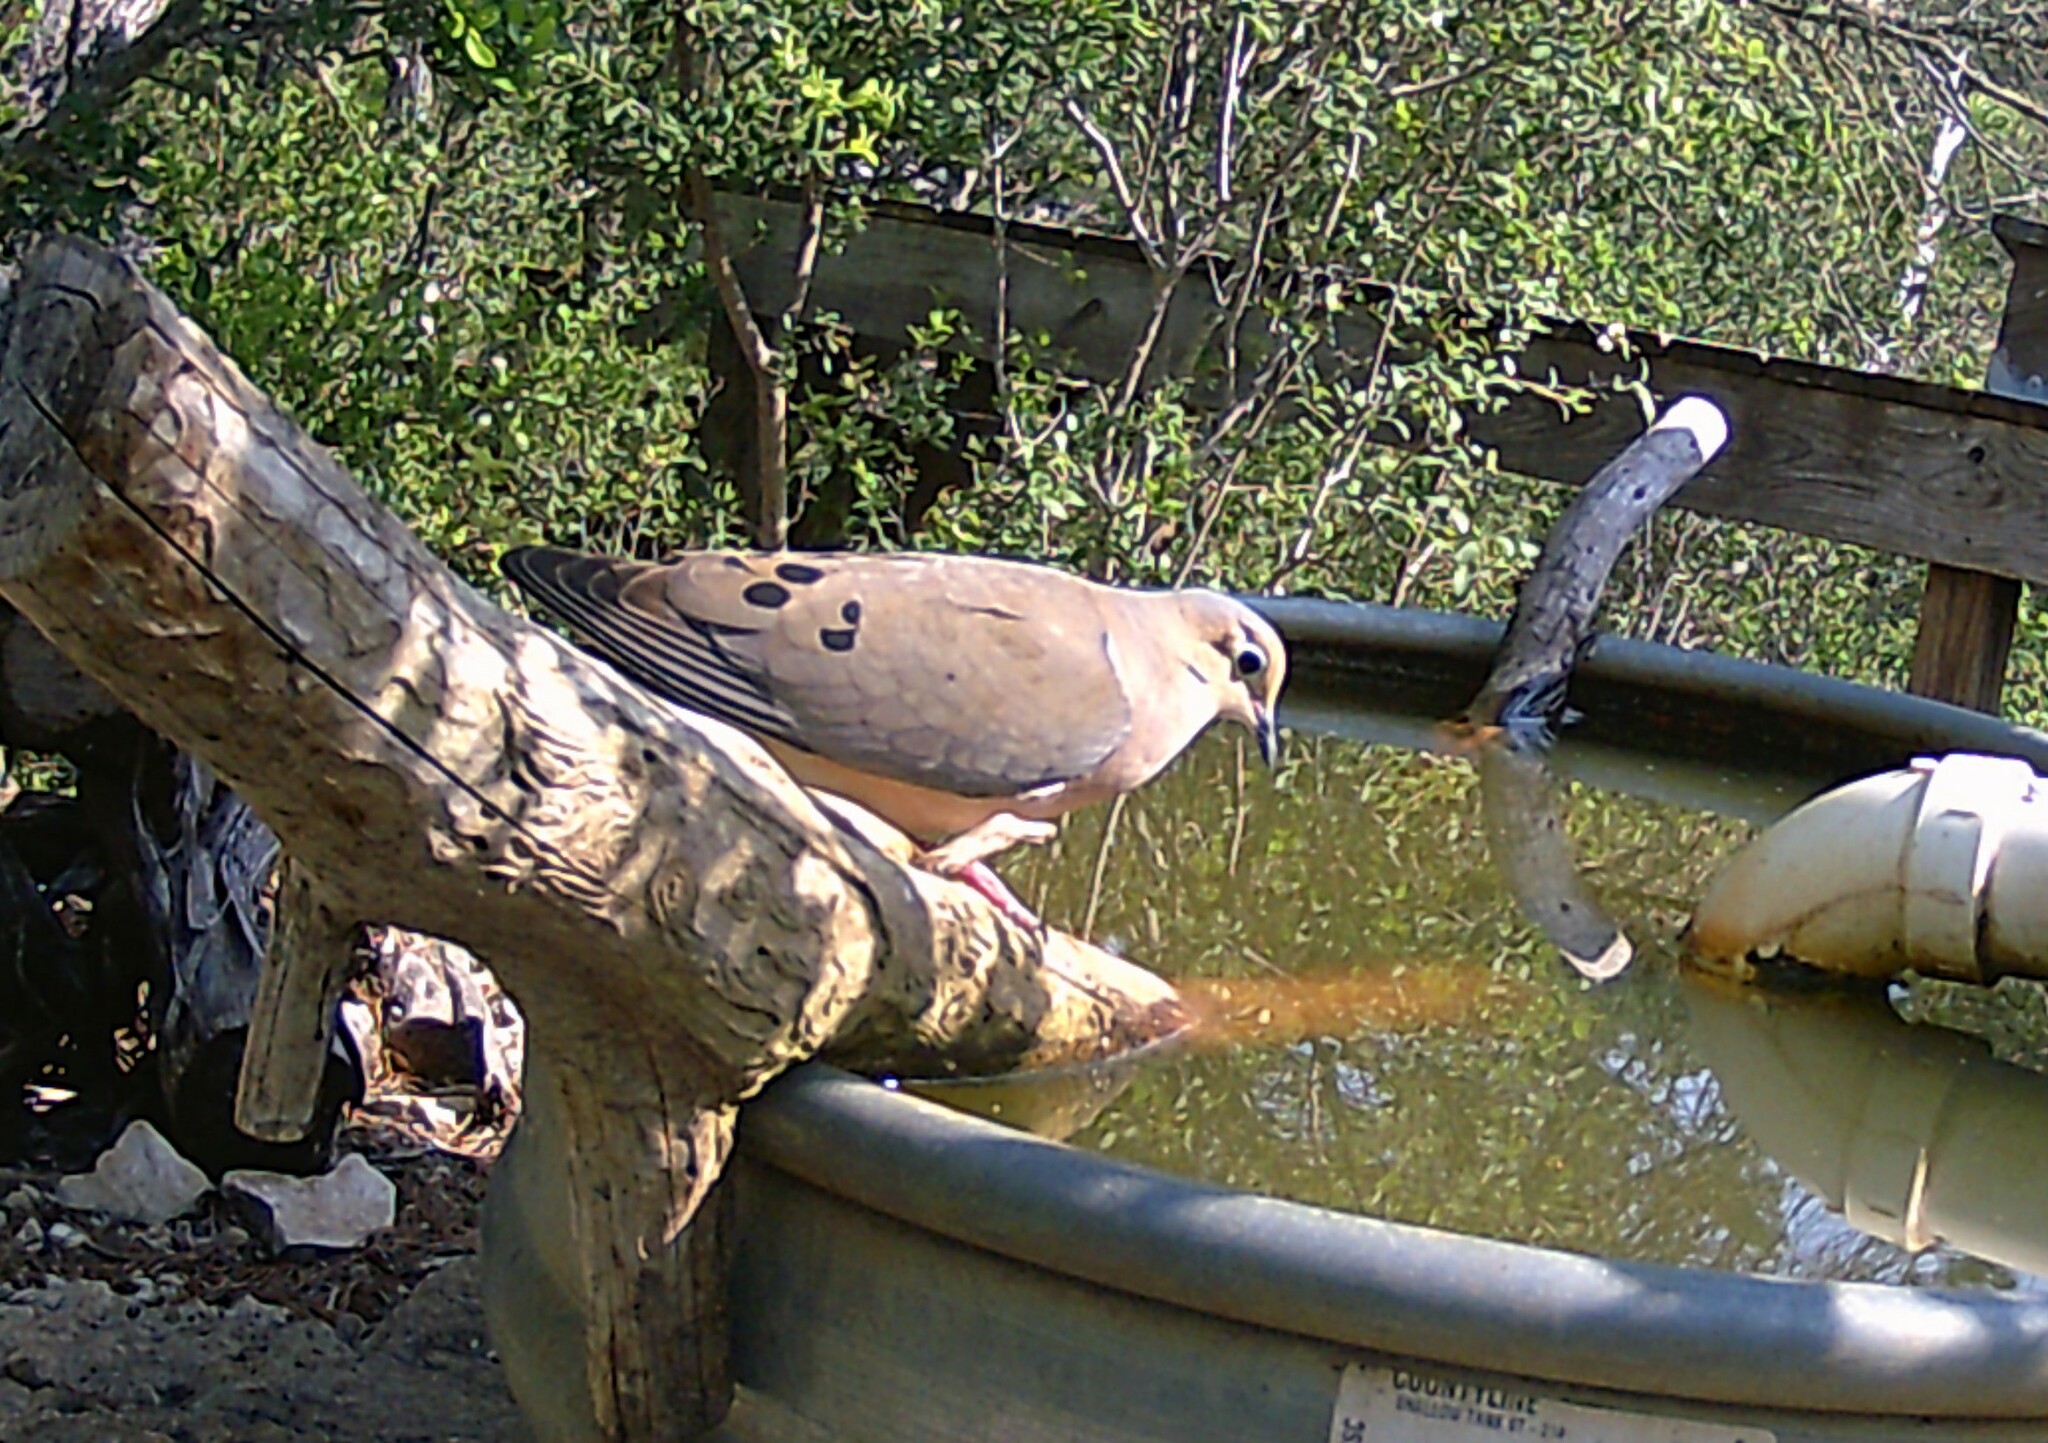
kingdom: Animalia
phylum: Chordata
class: Aves
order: Columbiformes
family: Columbidae
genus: Zenaida
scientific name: Zenaida macroura
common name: Mourning dove
